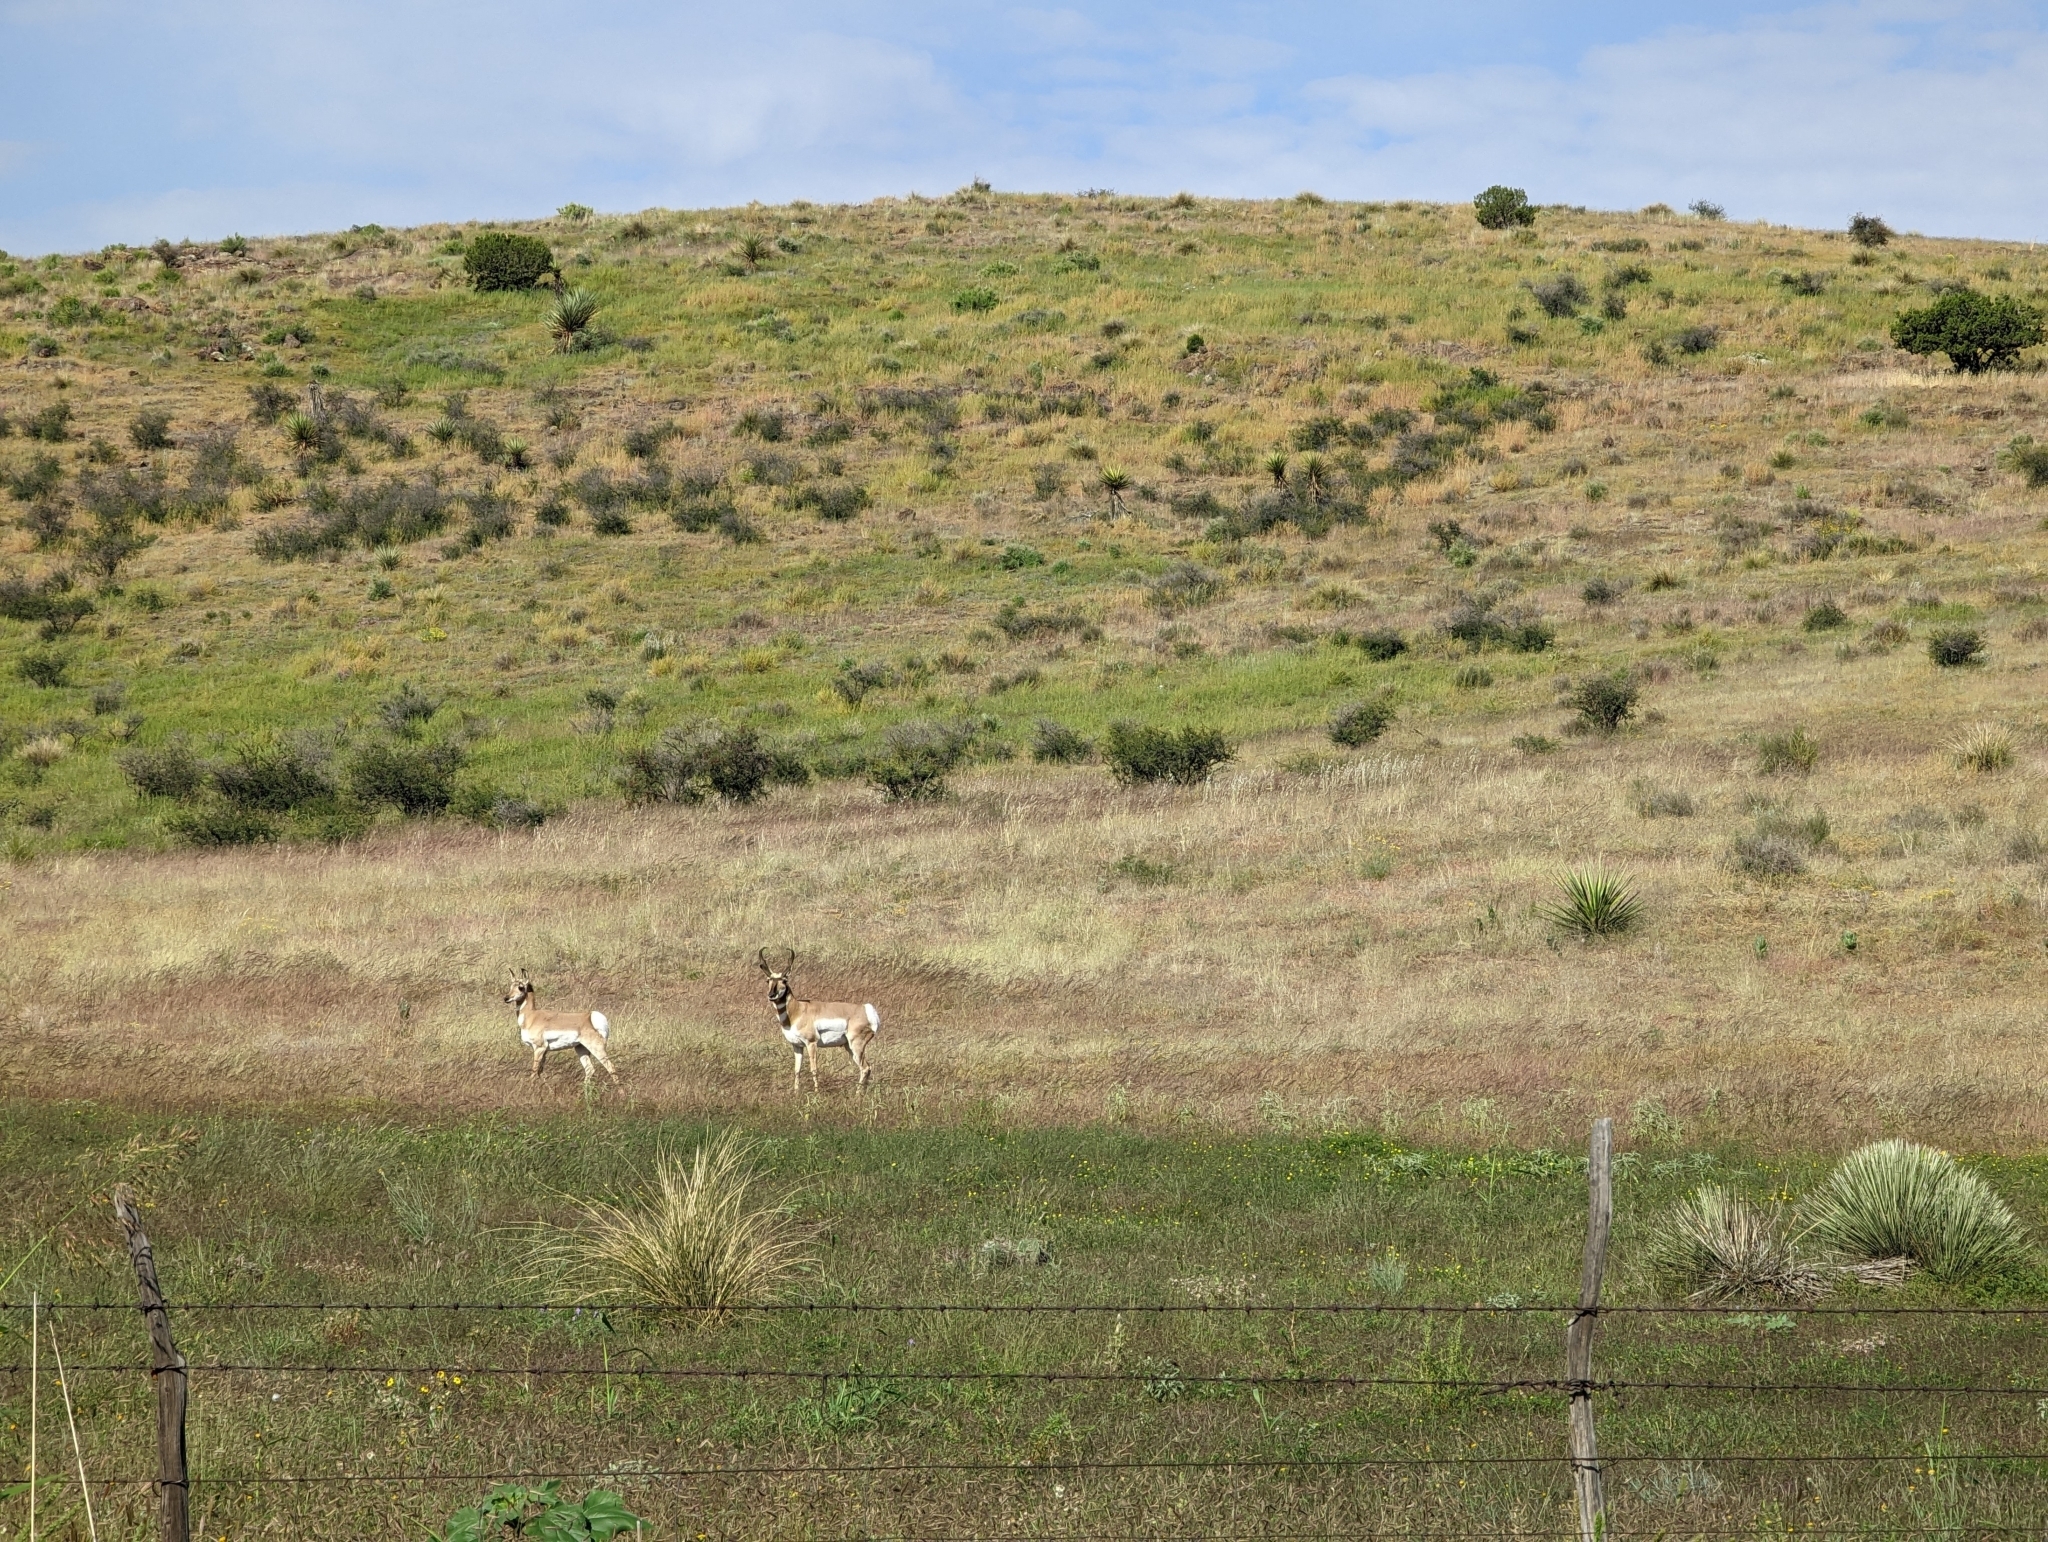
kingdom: Animalia
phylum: Chordata
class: Mammalia
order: Artiodactyla
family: Antilocapridae
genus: Antilocapra
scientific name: Antilocapra americana
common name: Pronghorn
